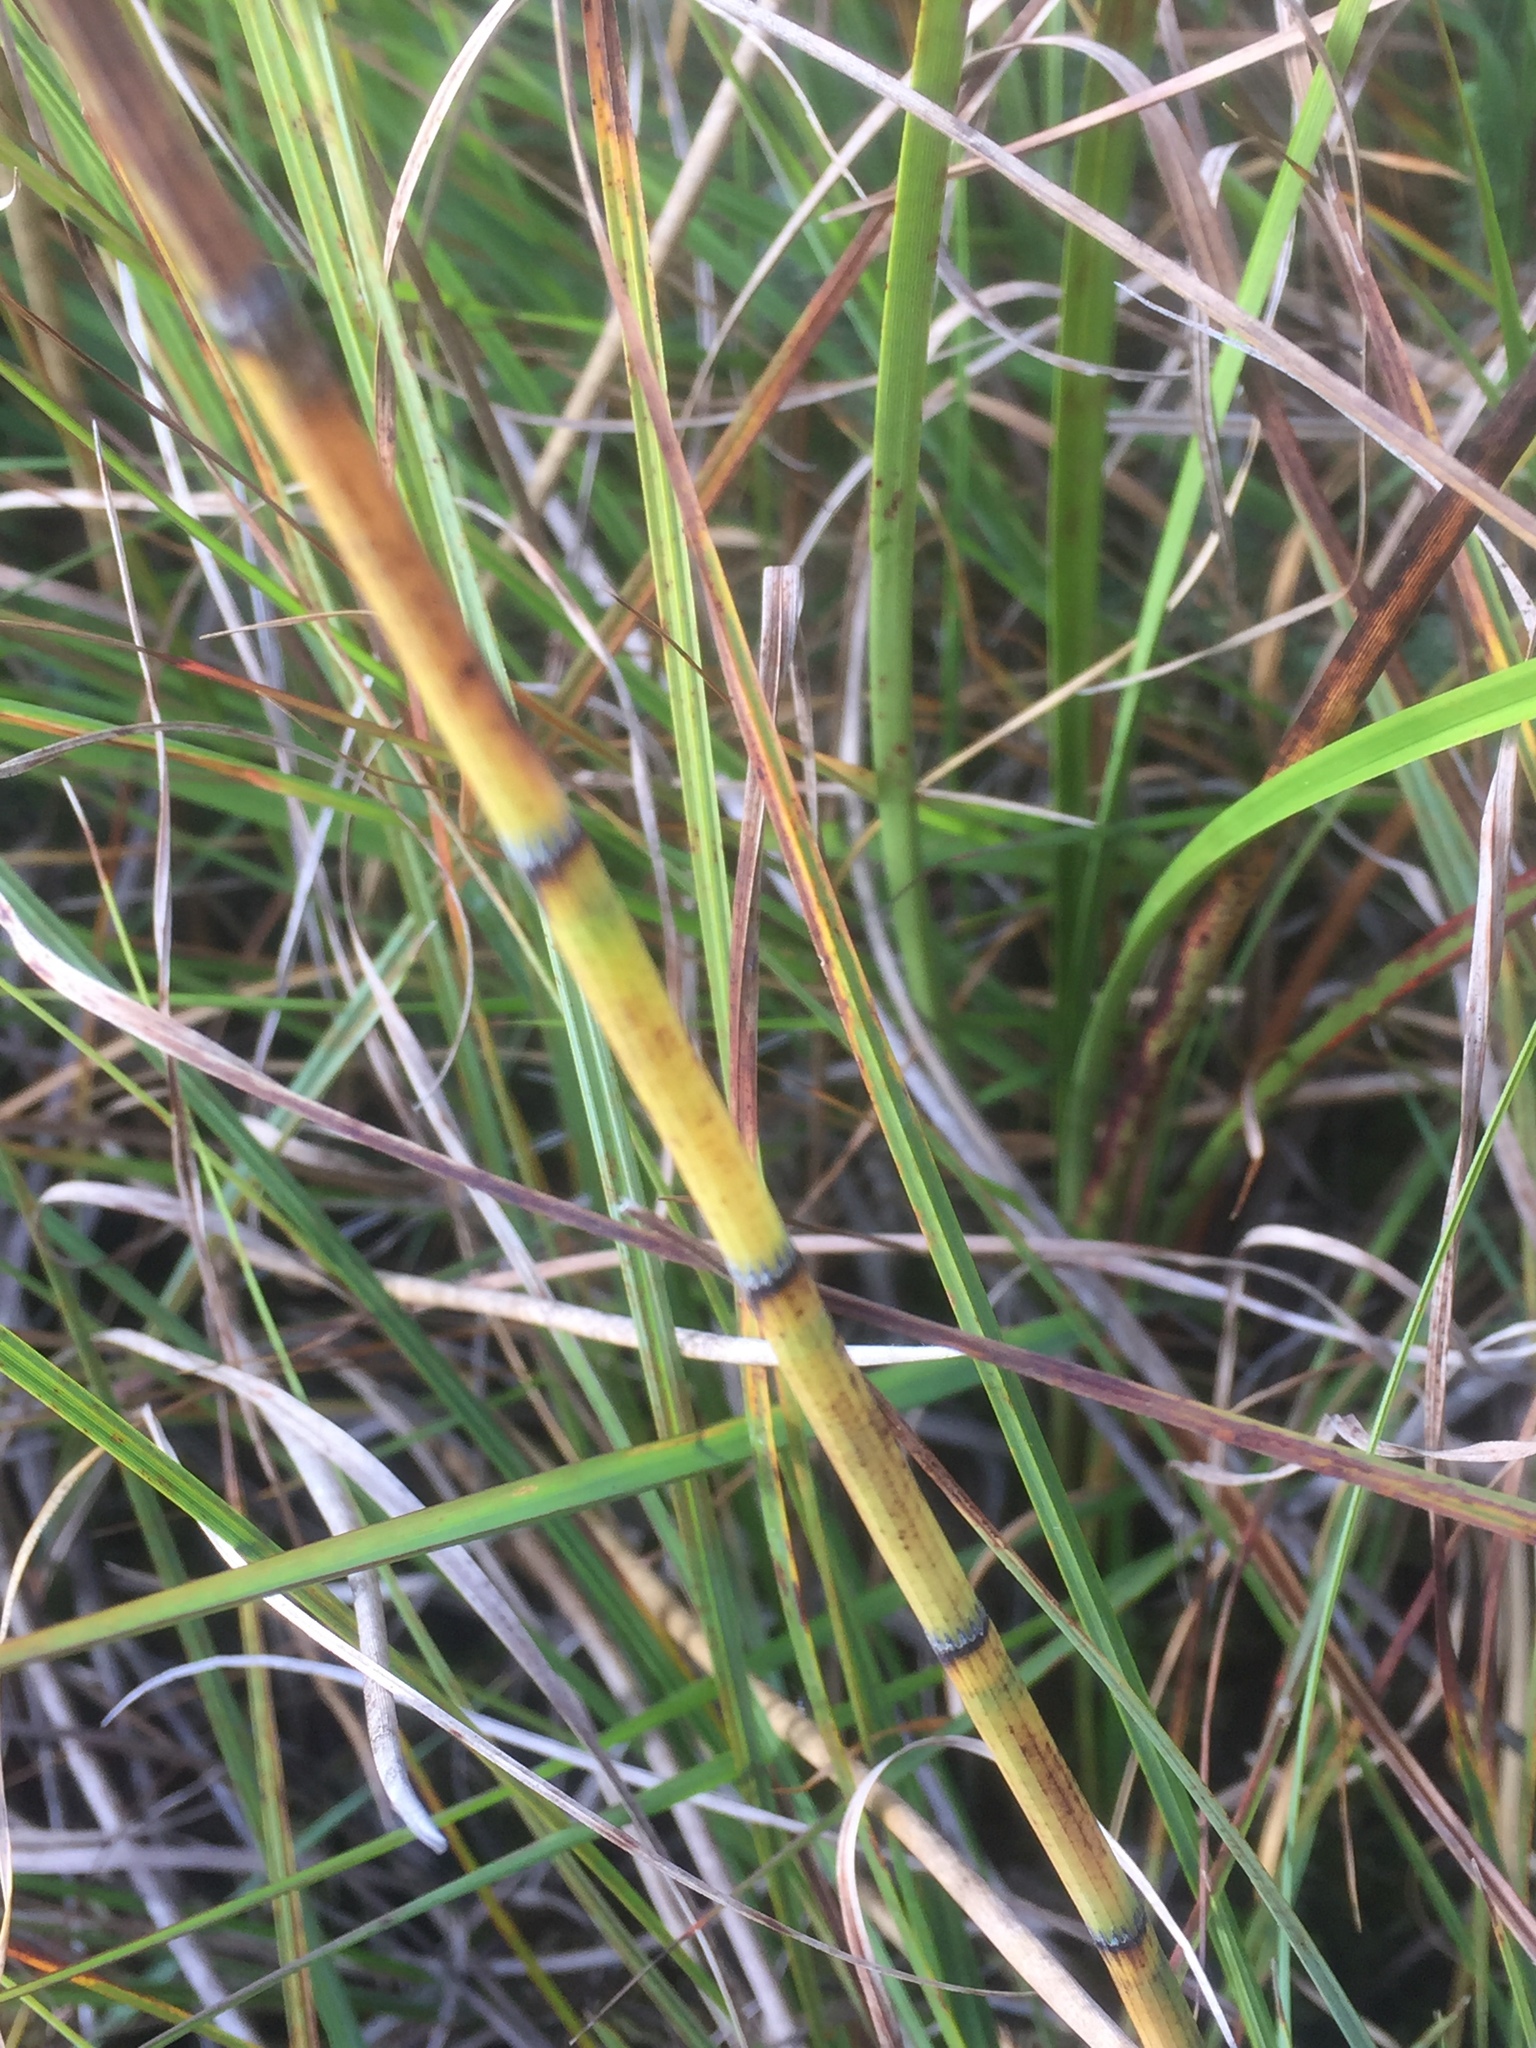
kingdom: Plantae
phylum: Tracheophyta
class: Polypodiopsida
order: Equisetales
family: Equisetaceae
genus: Equisetum
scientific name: Equisetum fluviatile
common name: Water horsetail
